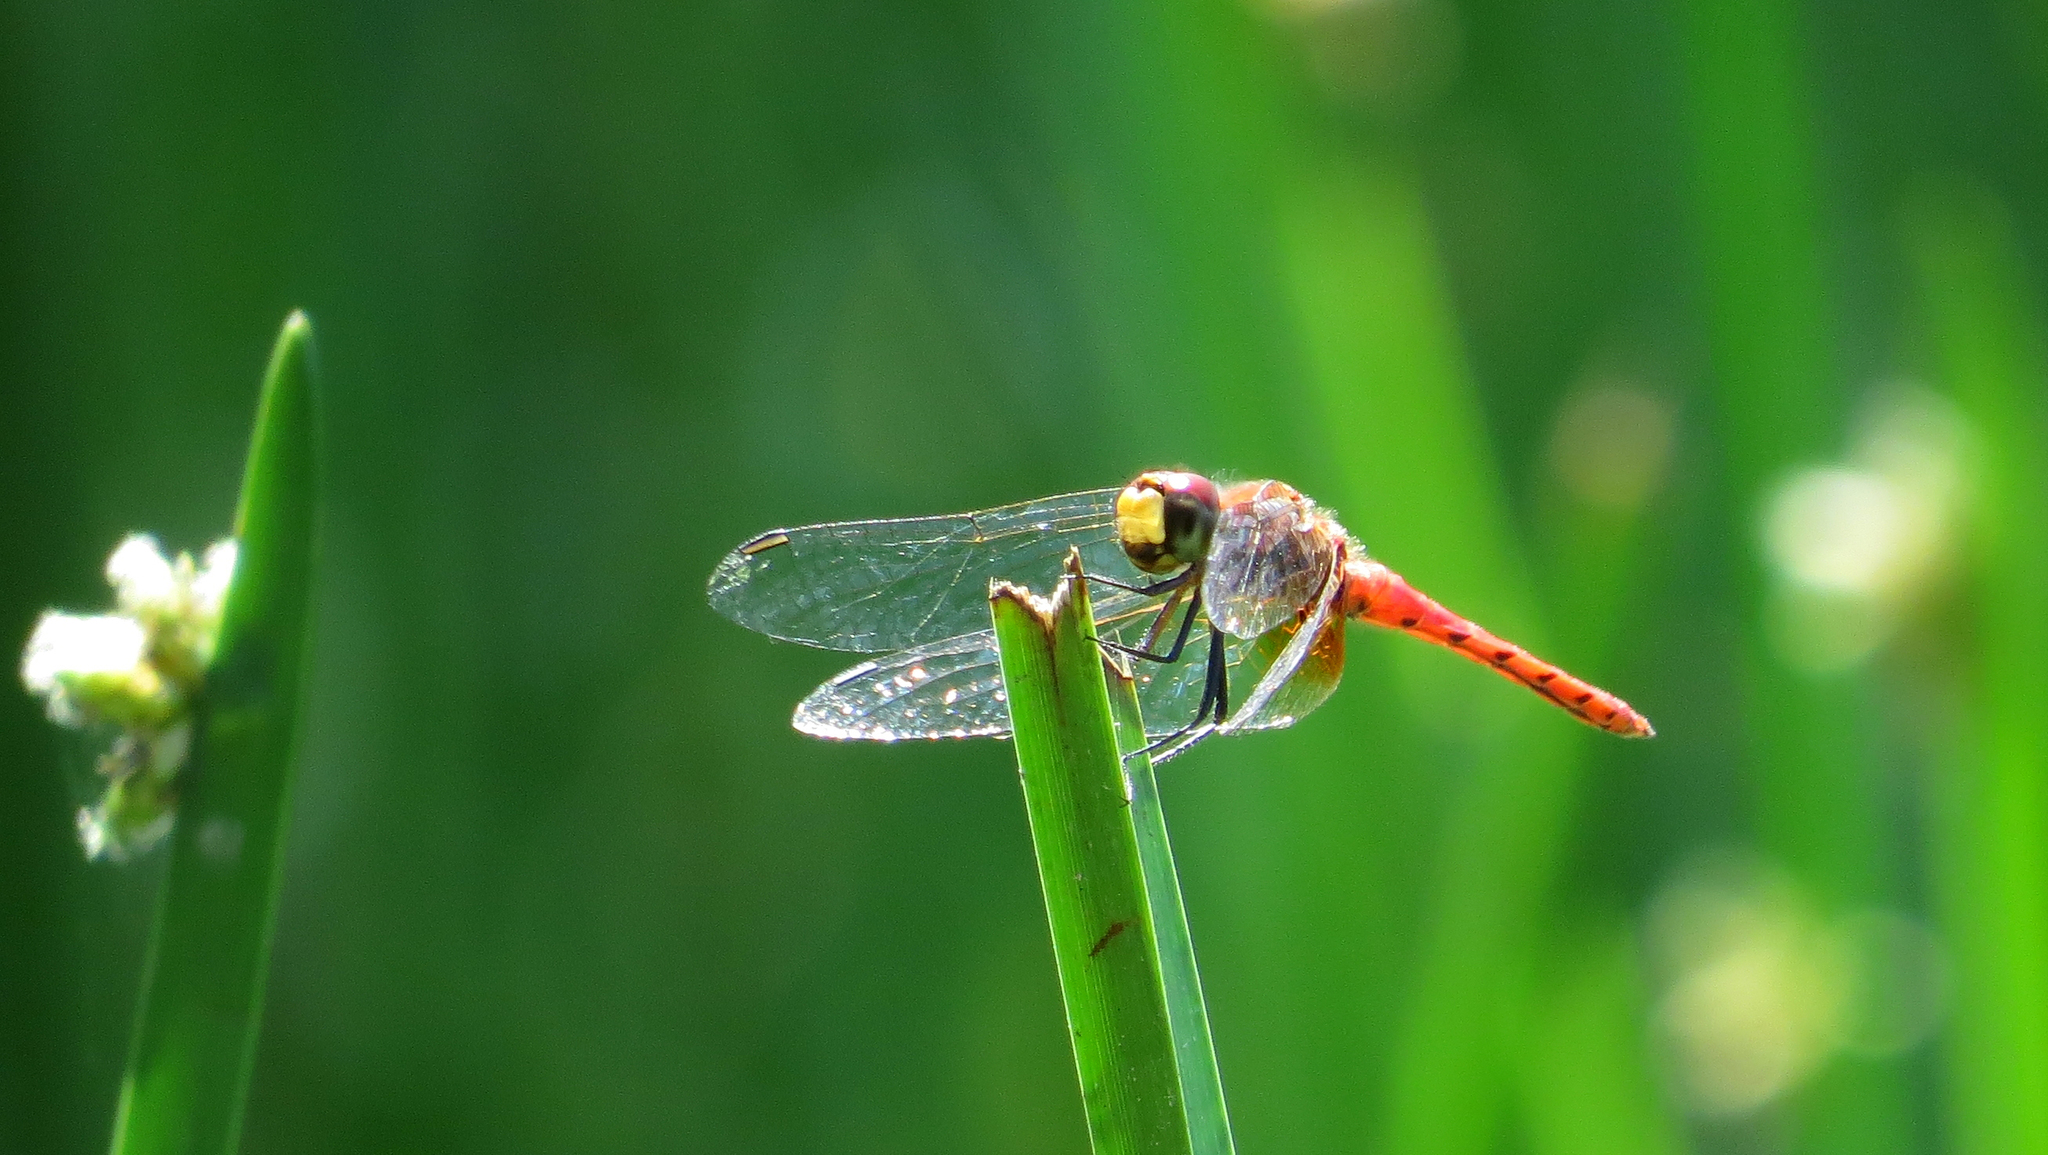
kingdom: Animalia
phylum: Arthropoda
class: Insecta
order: Odonata
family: Libellulidae
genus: Aethriamanta
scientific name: Aethriamanta nymphaeae
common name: L-spot basker
